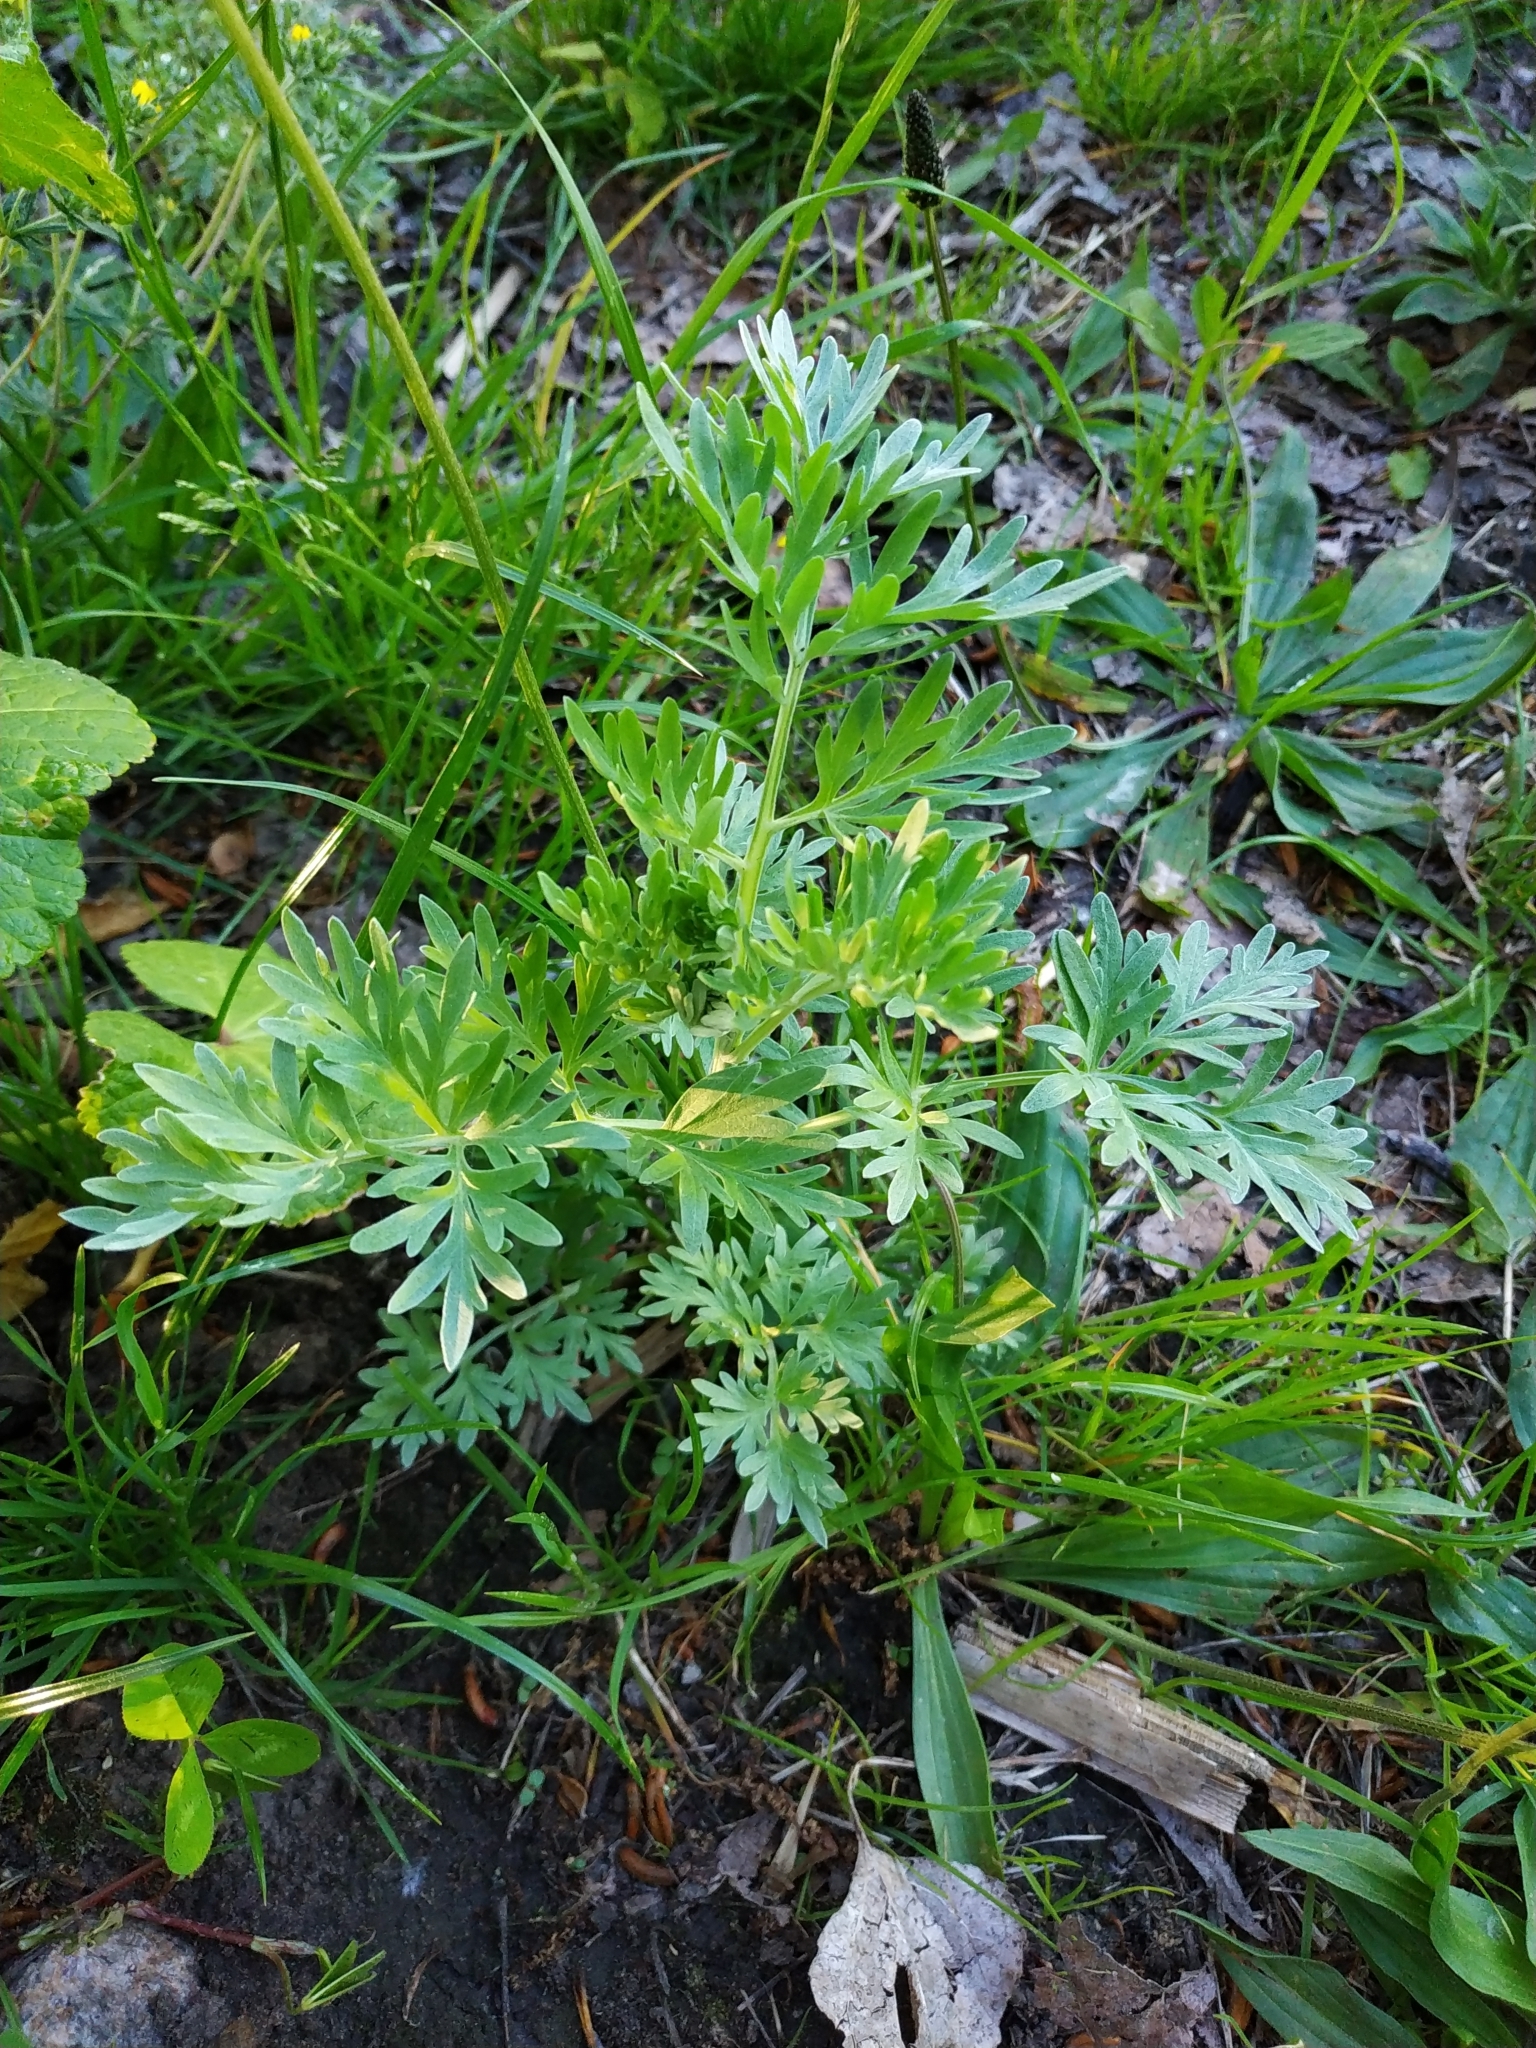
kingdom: Plantae
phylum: Tracheophyta
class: Magnoliopsida
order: Asterales
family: Asteraceae
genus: Artemisia
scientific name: Artemisia absinthium
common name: Wormwood
